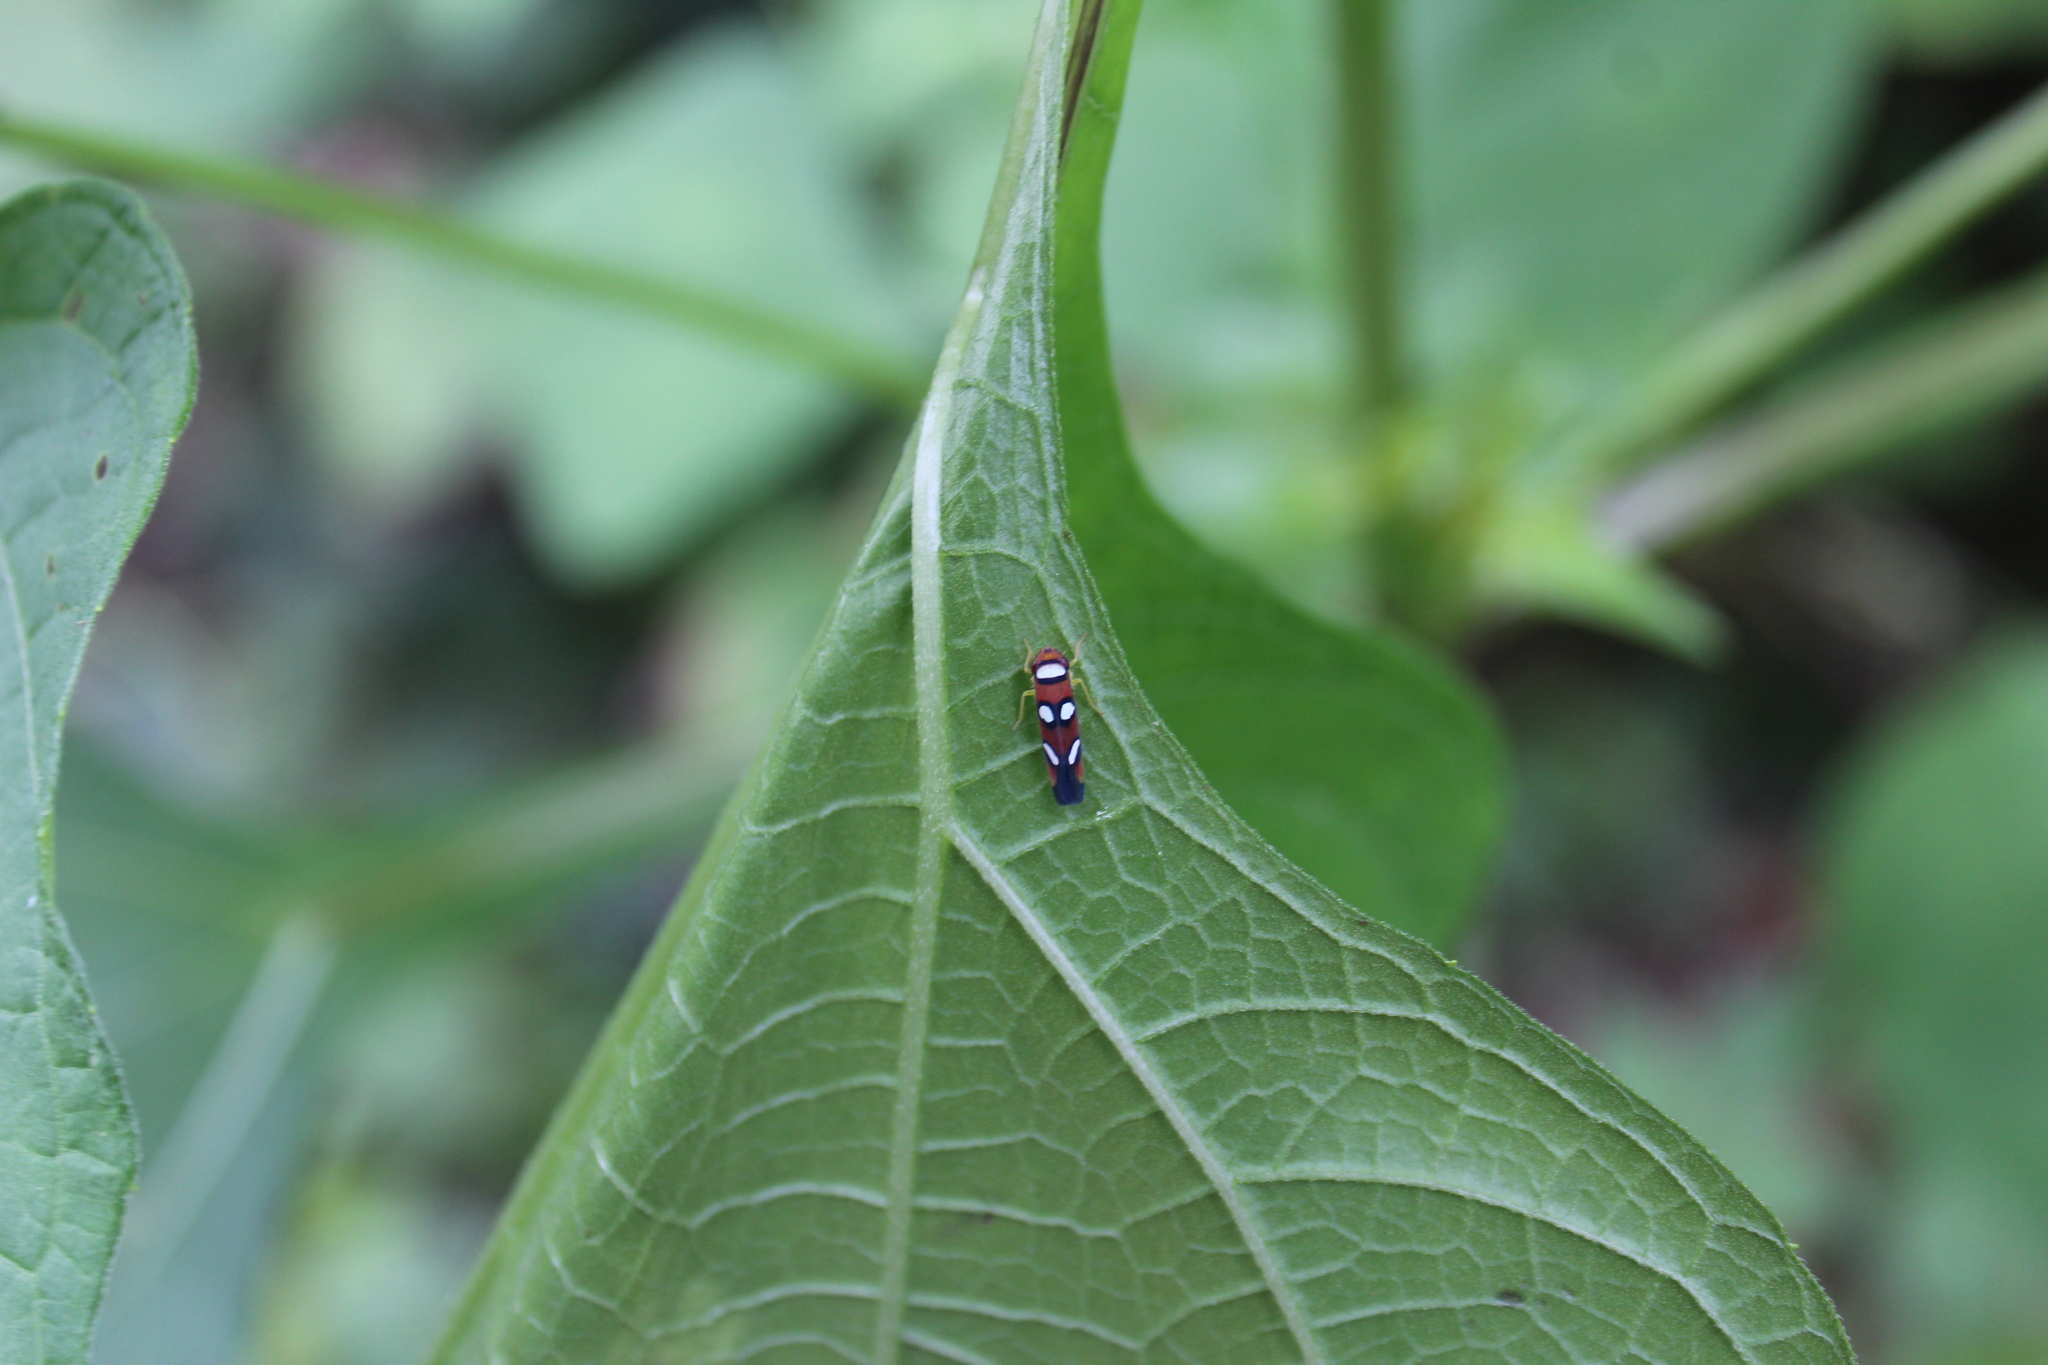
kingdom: Animalia
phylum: Arthropoda
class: Insecta
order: Hemiptera
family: Cicadellidae
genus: Erythrogonia
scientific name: Erythrogonia areolata
